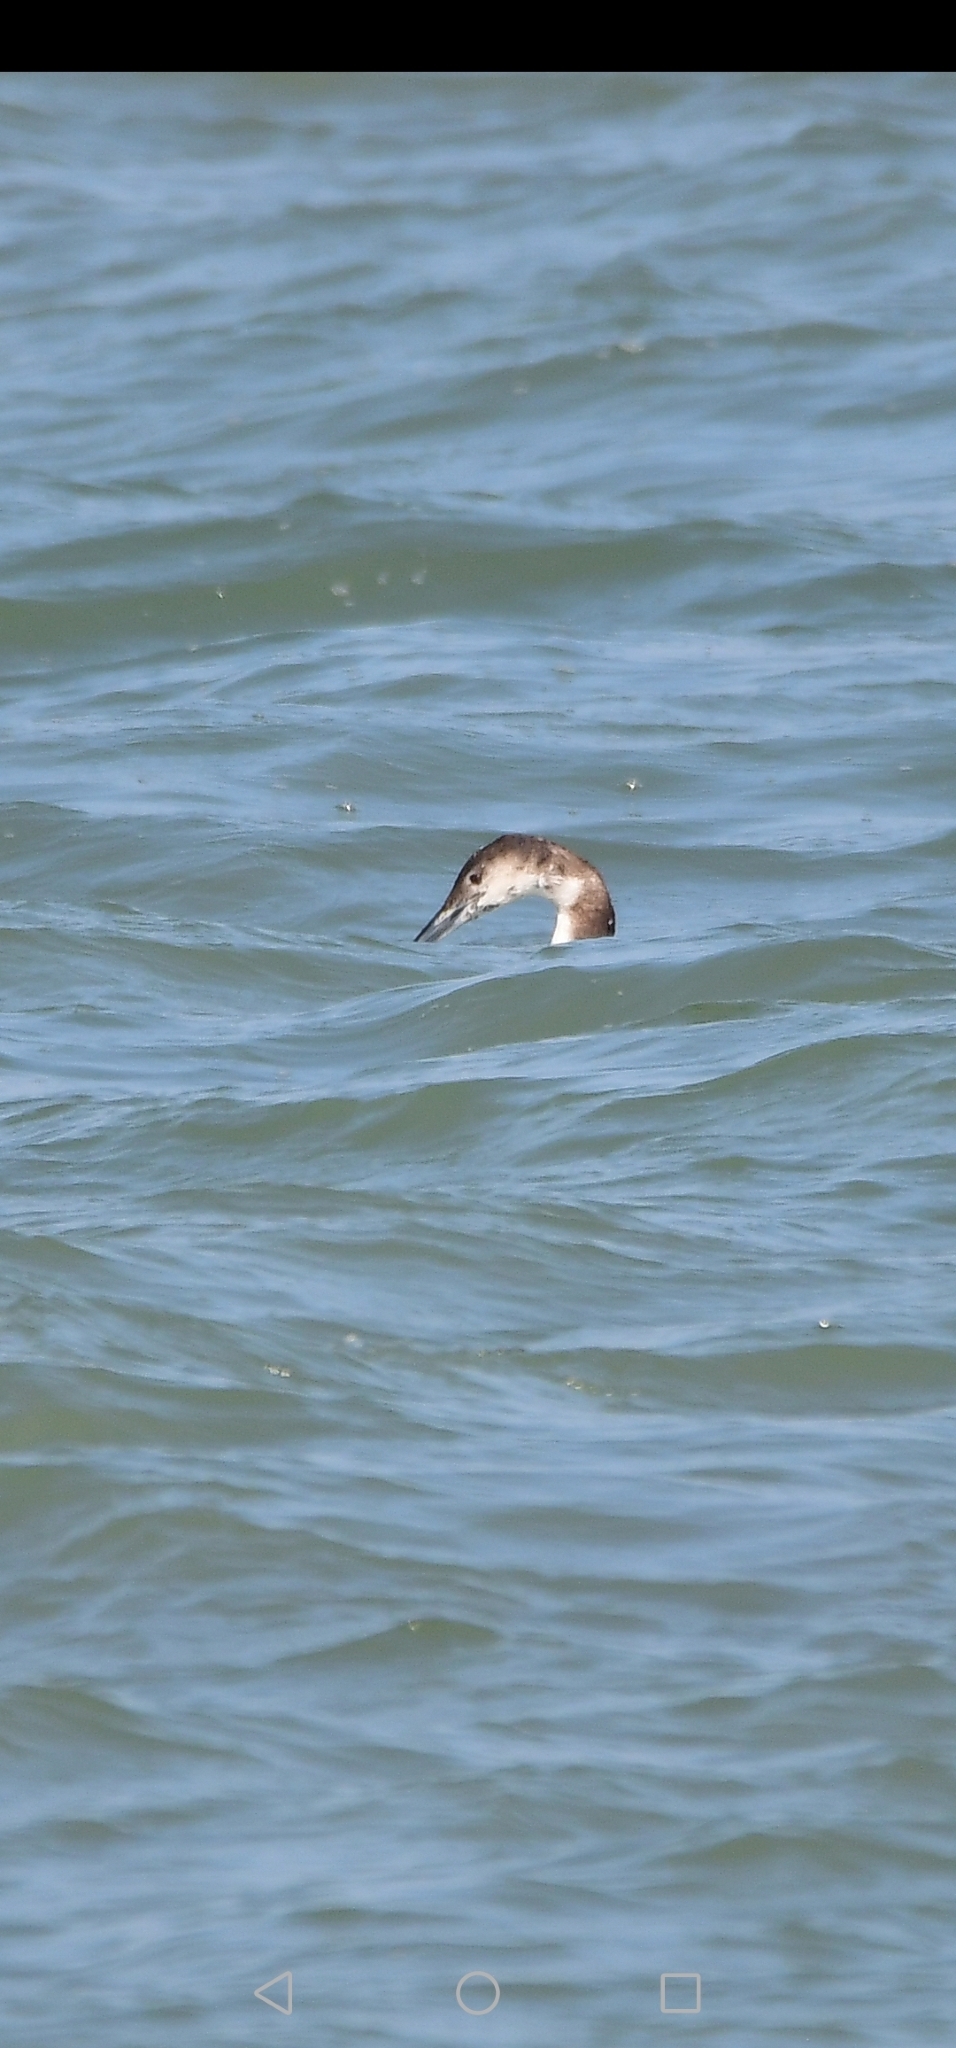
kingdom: Animalia
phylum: Chordata
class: Aves
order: Gaviiformes
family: Gaviidae
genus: Gavia
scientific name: Gavia immer
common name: Common loon
